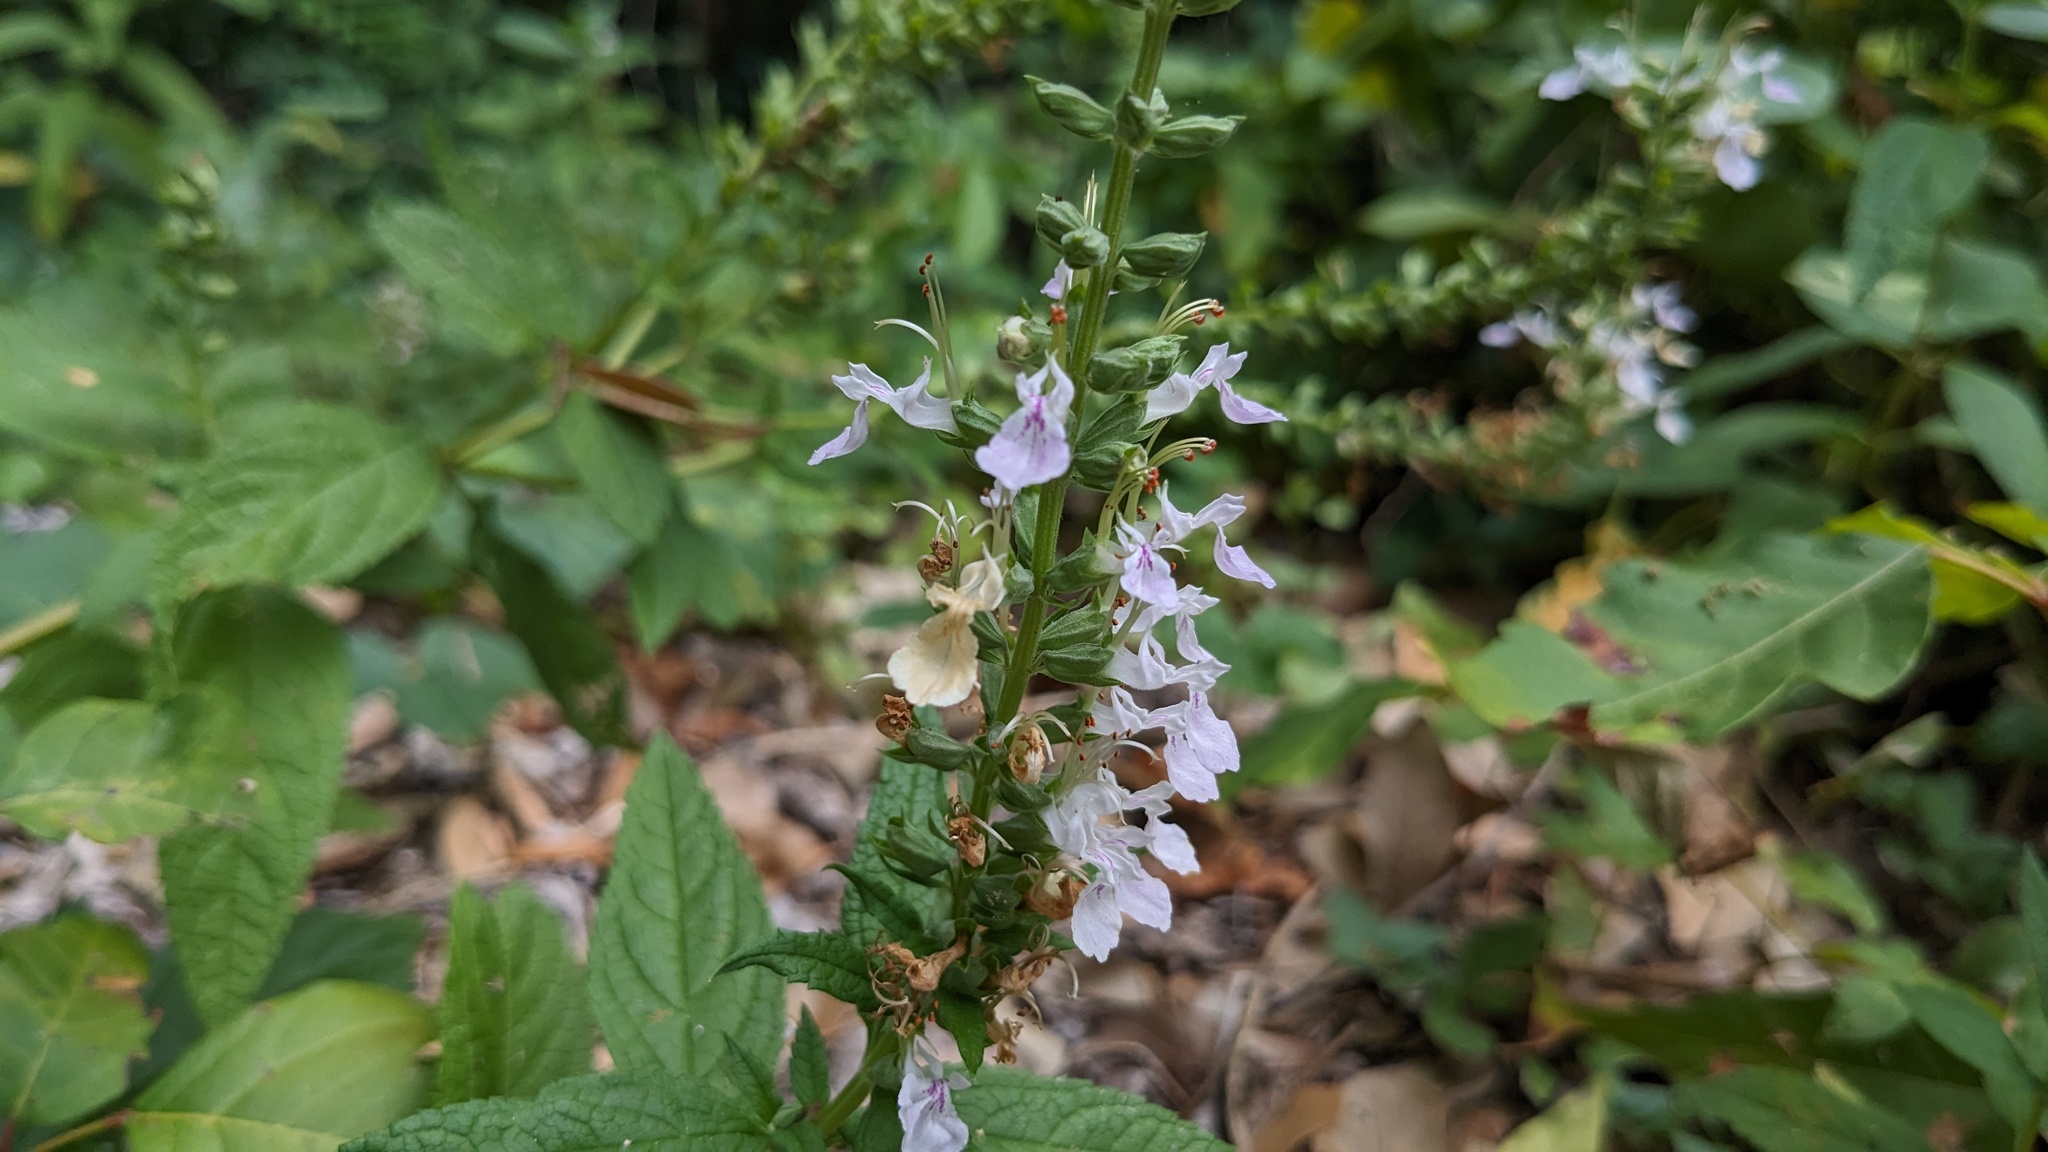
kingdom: Plantae
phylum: Tracheophyta
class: Magnoliopsida
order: Lamiales
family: Lamiaceae
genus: Teucrium
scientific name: Teucrium canadense
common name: American germander
